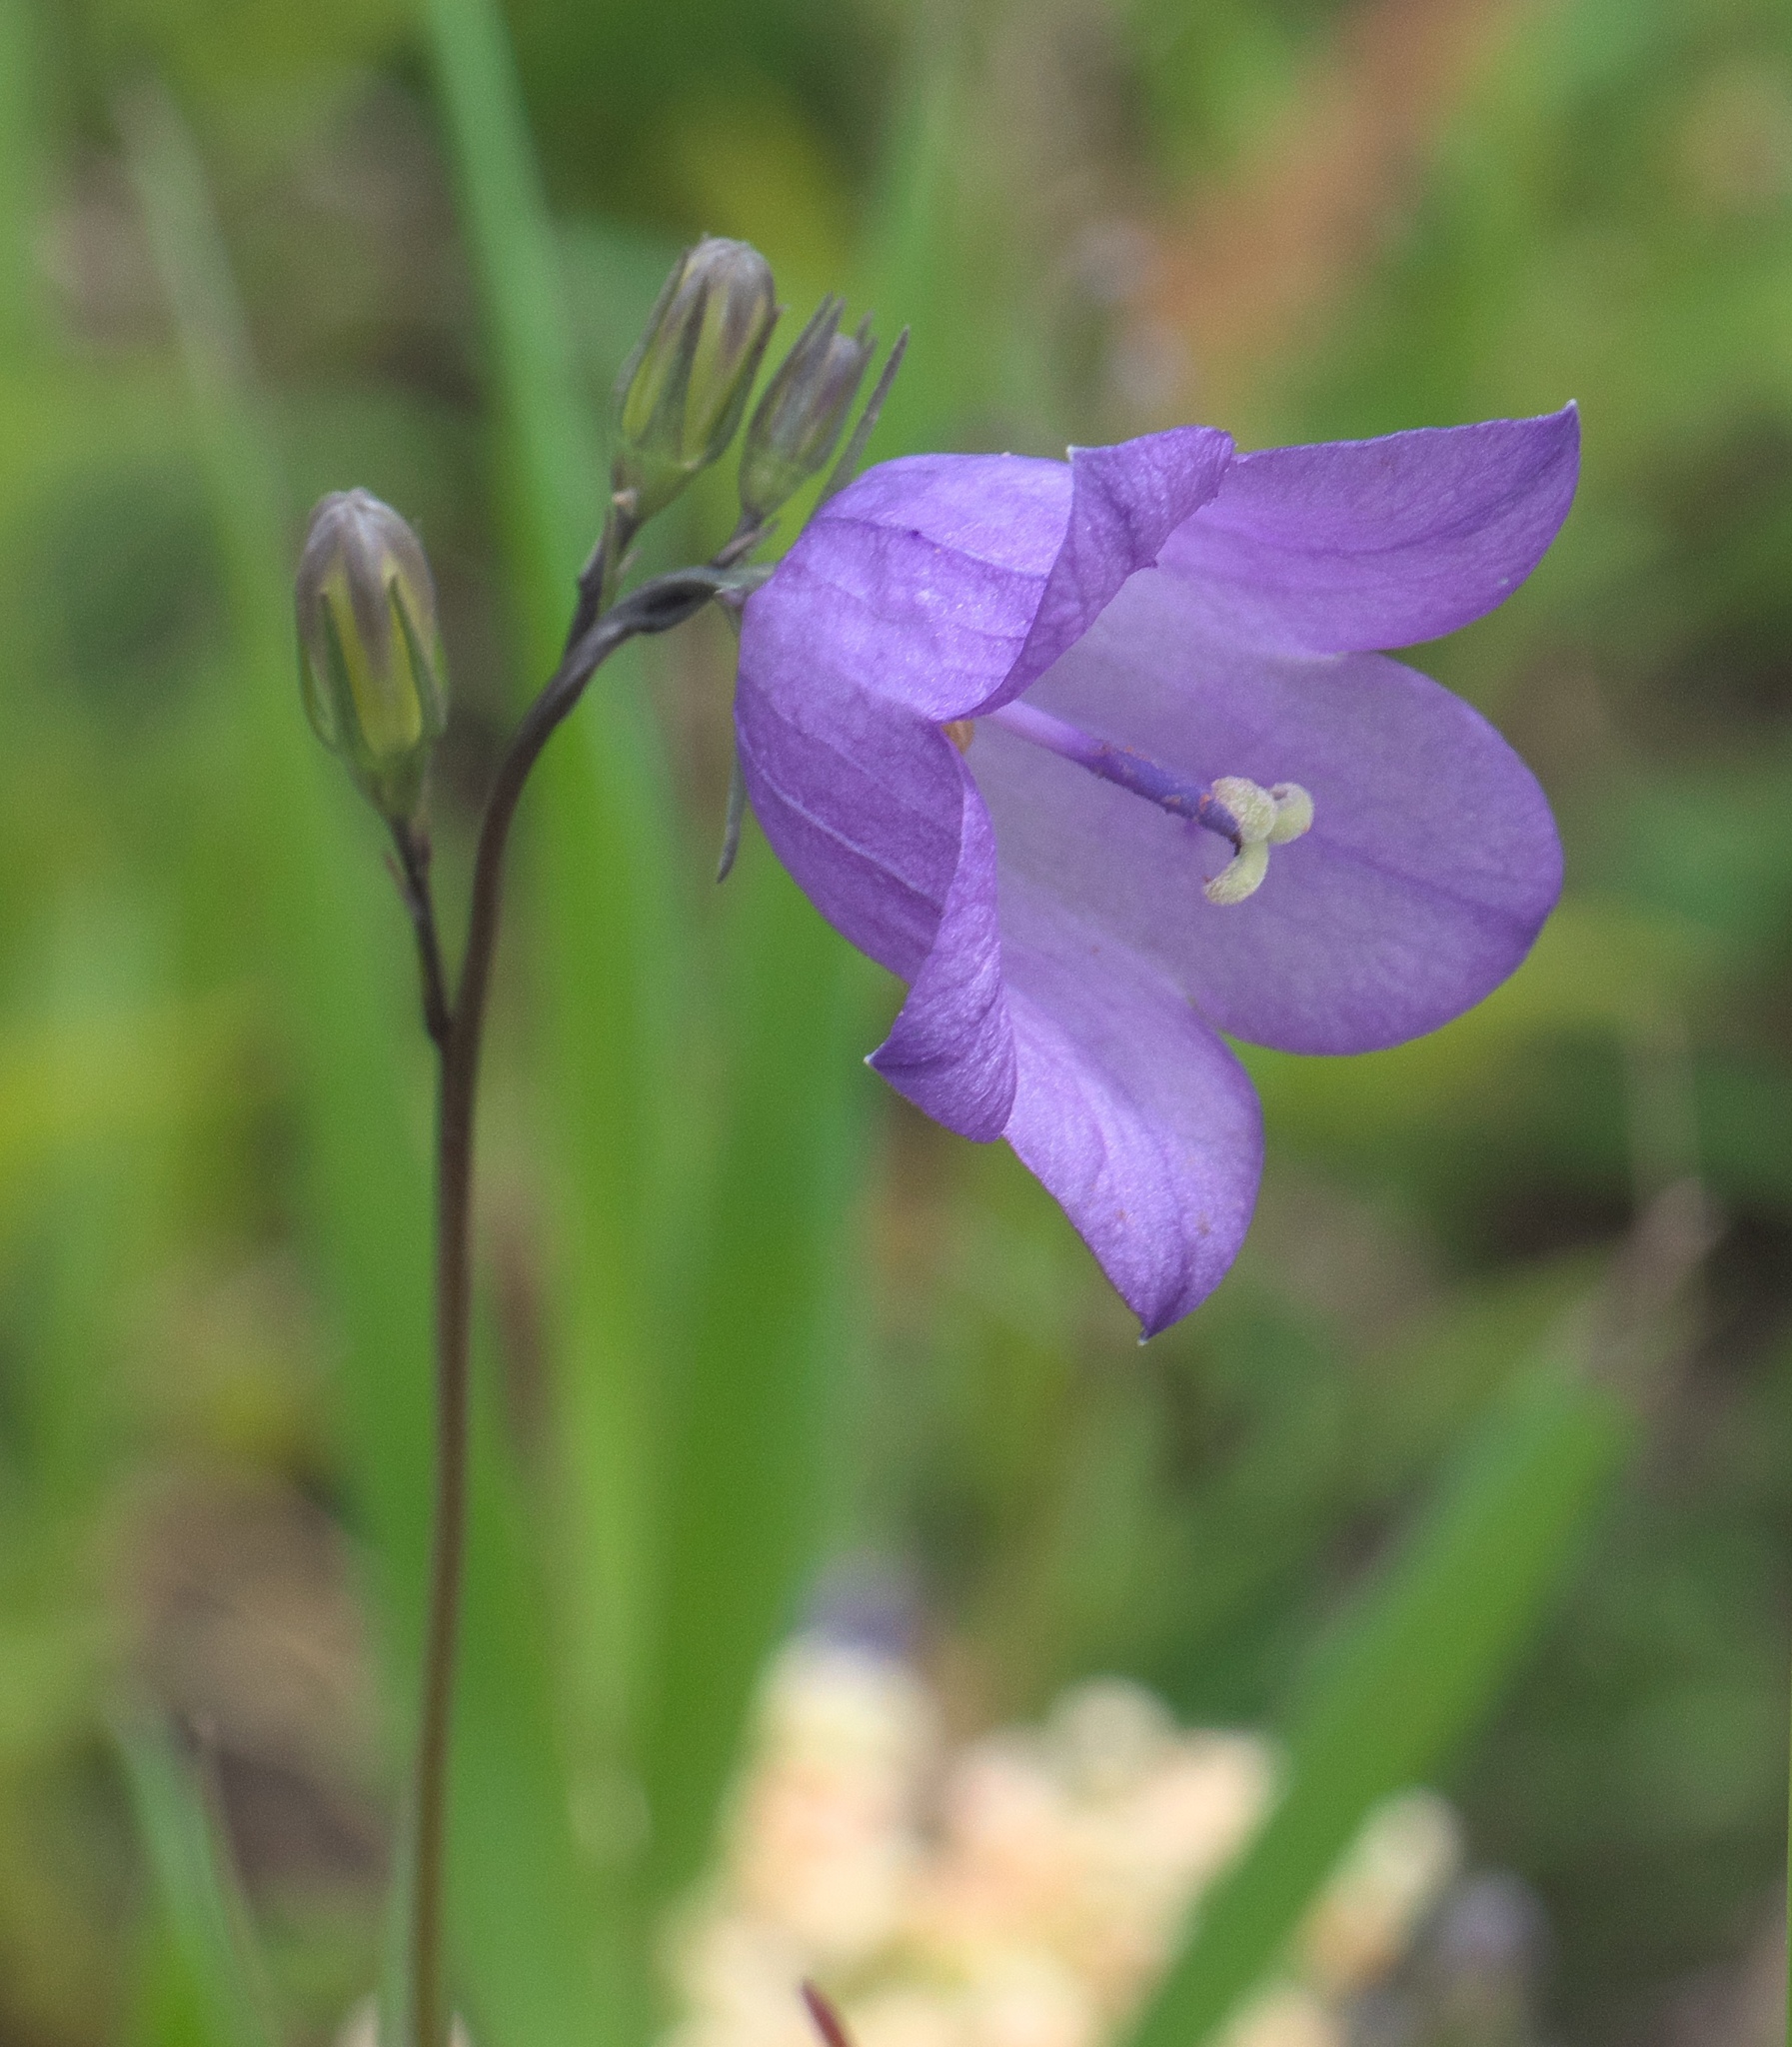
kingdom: Plantae
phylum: Tracheophyta
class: Magnoliopsida
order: Asterales
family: Campanulaceae
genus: Campanula
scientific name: Campanula petiolata
